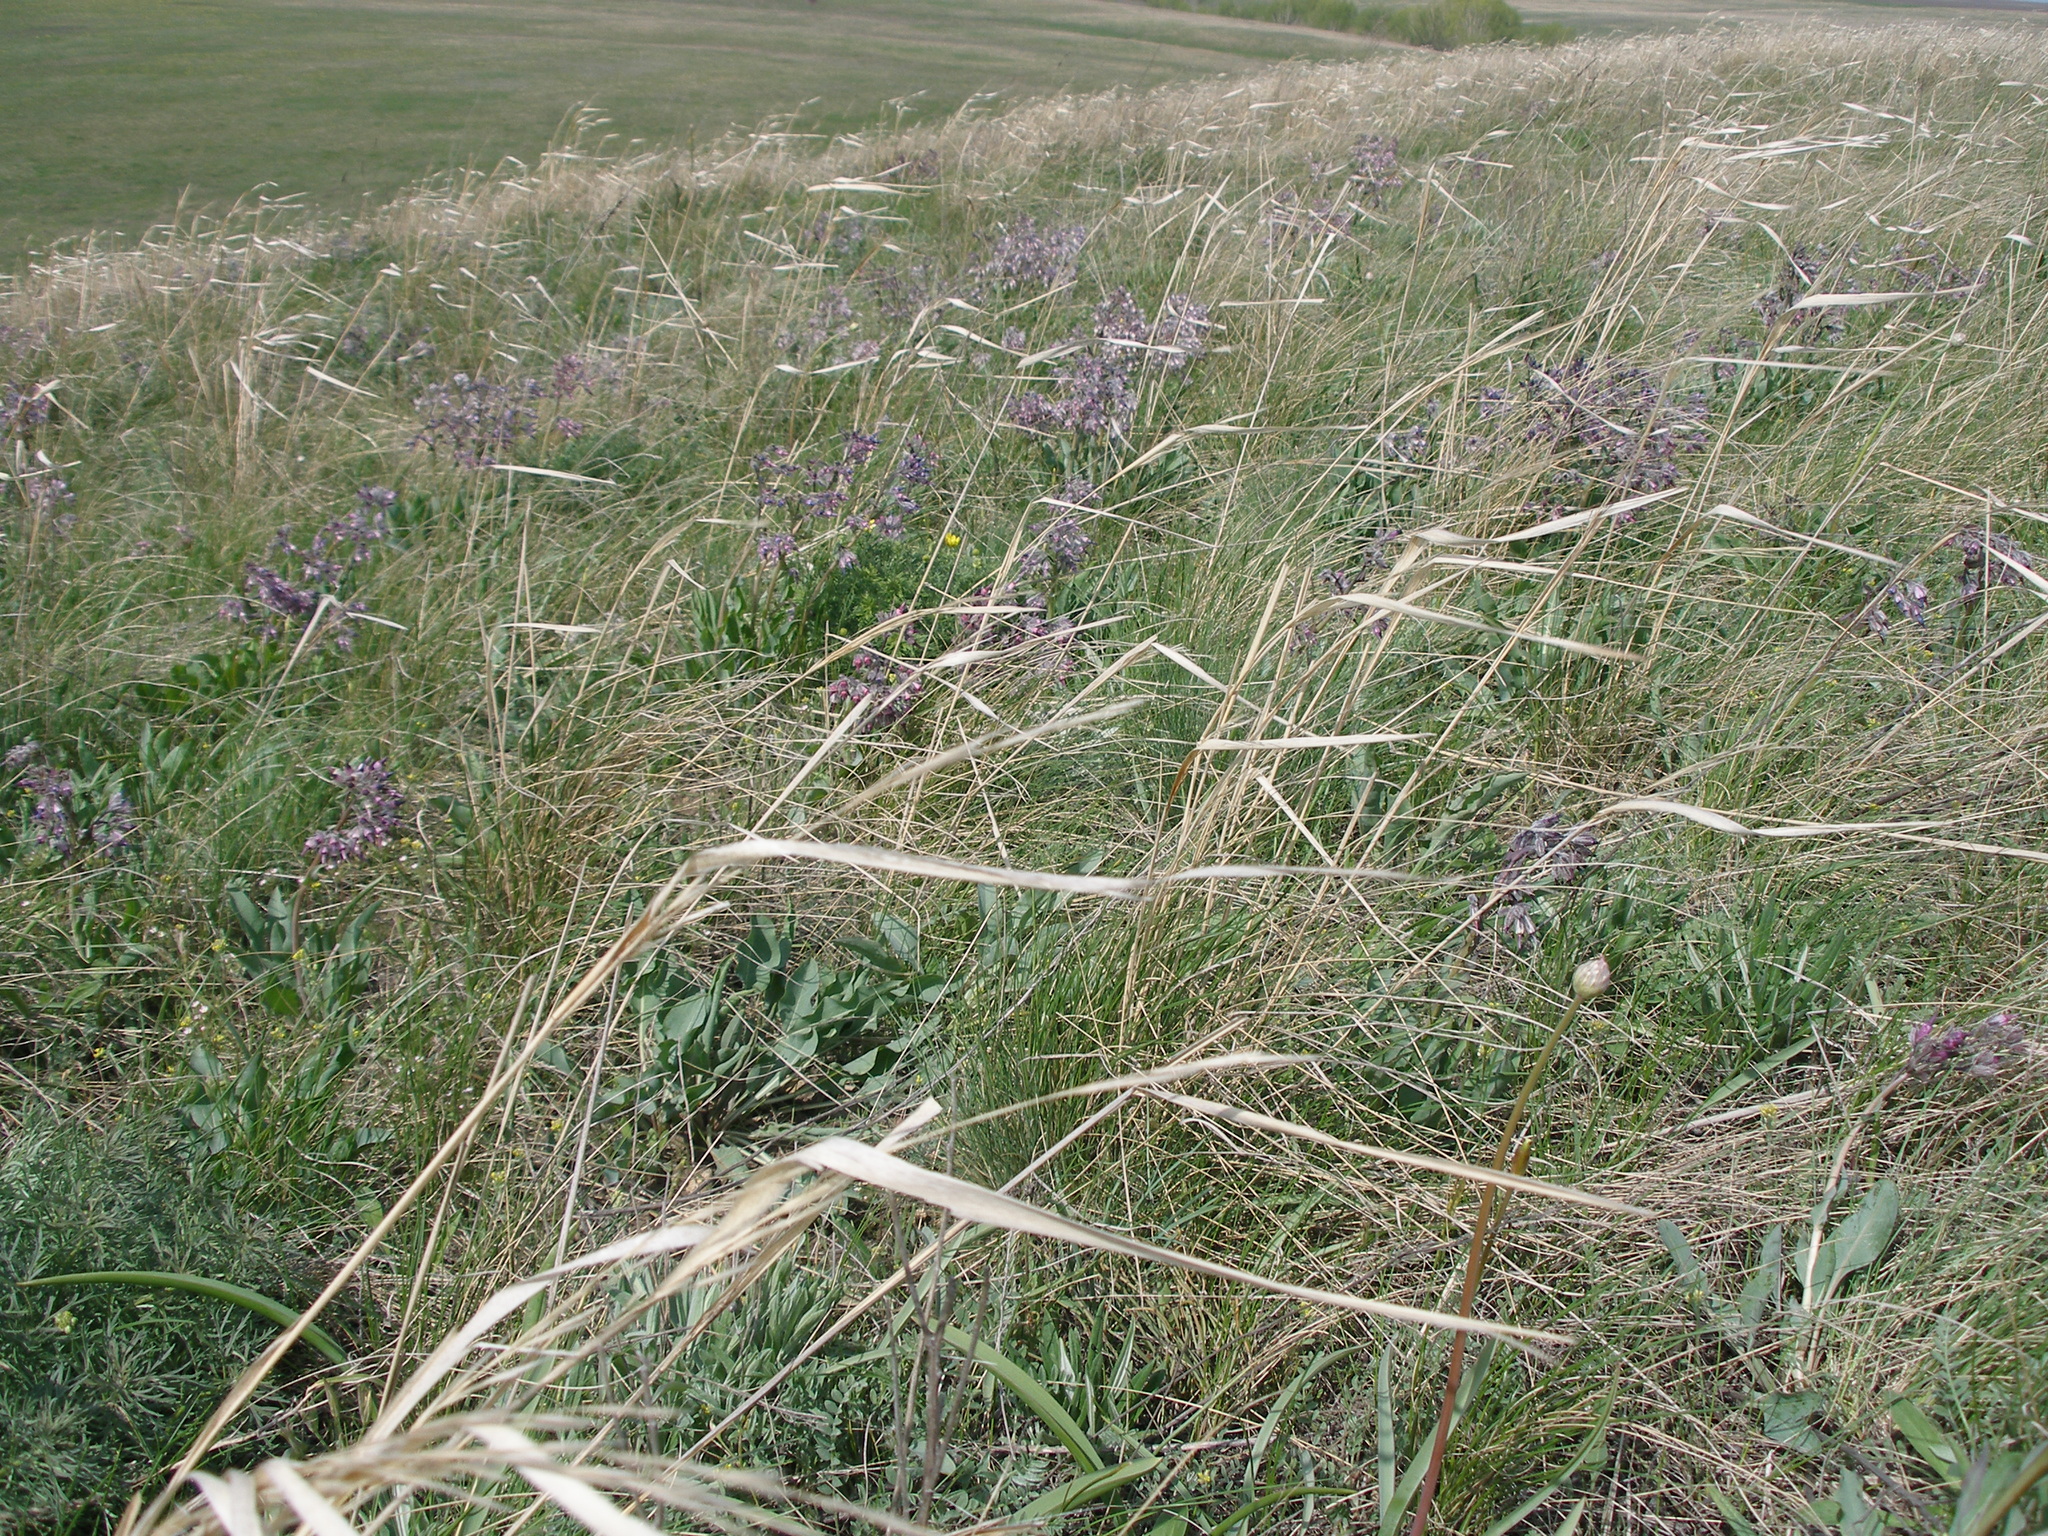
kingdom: Plantae
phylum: Tracheophyta
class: Magnoliopsida
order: Boraginales
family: Boraginaceae
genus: Rindera
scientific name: Rindera tetraspis
